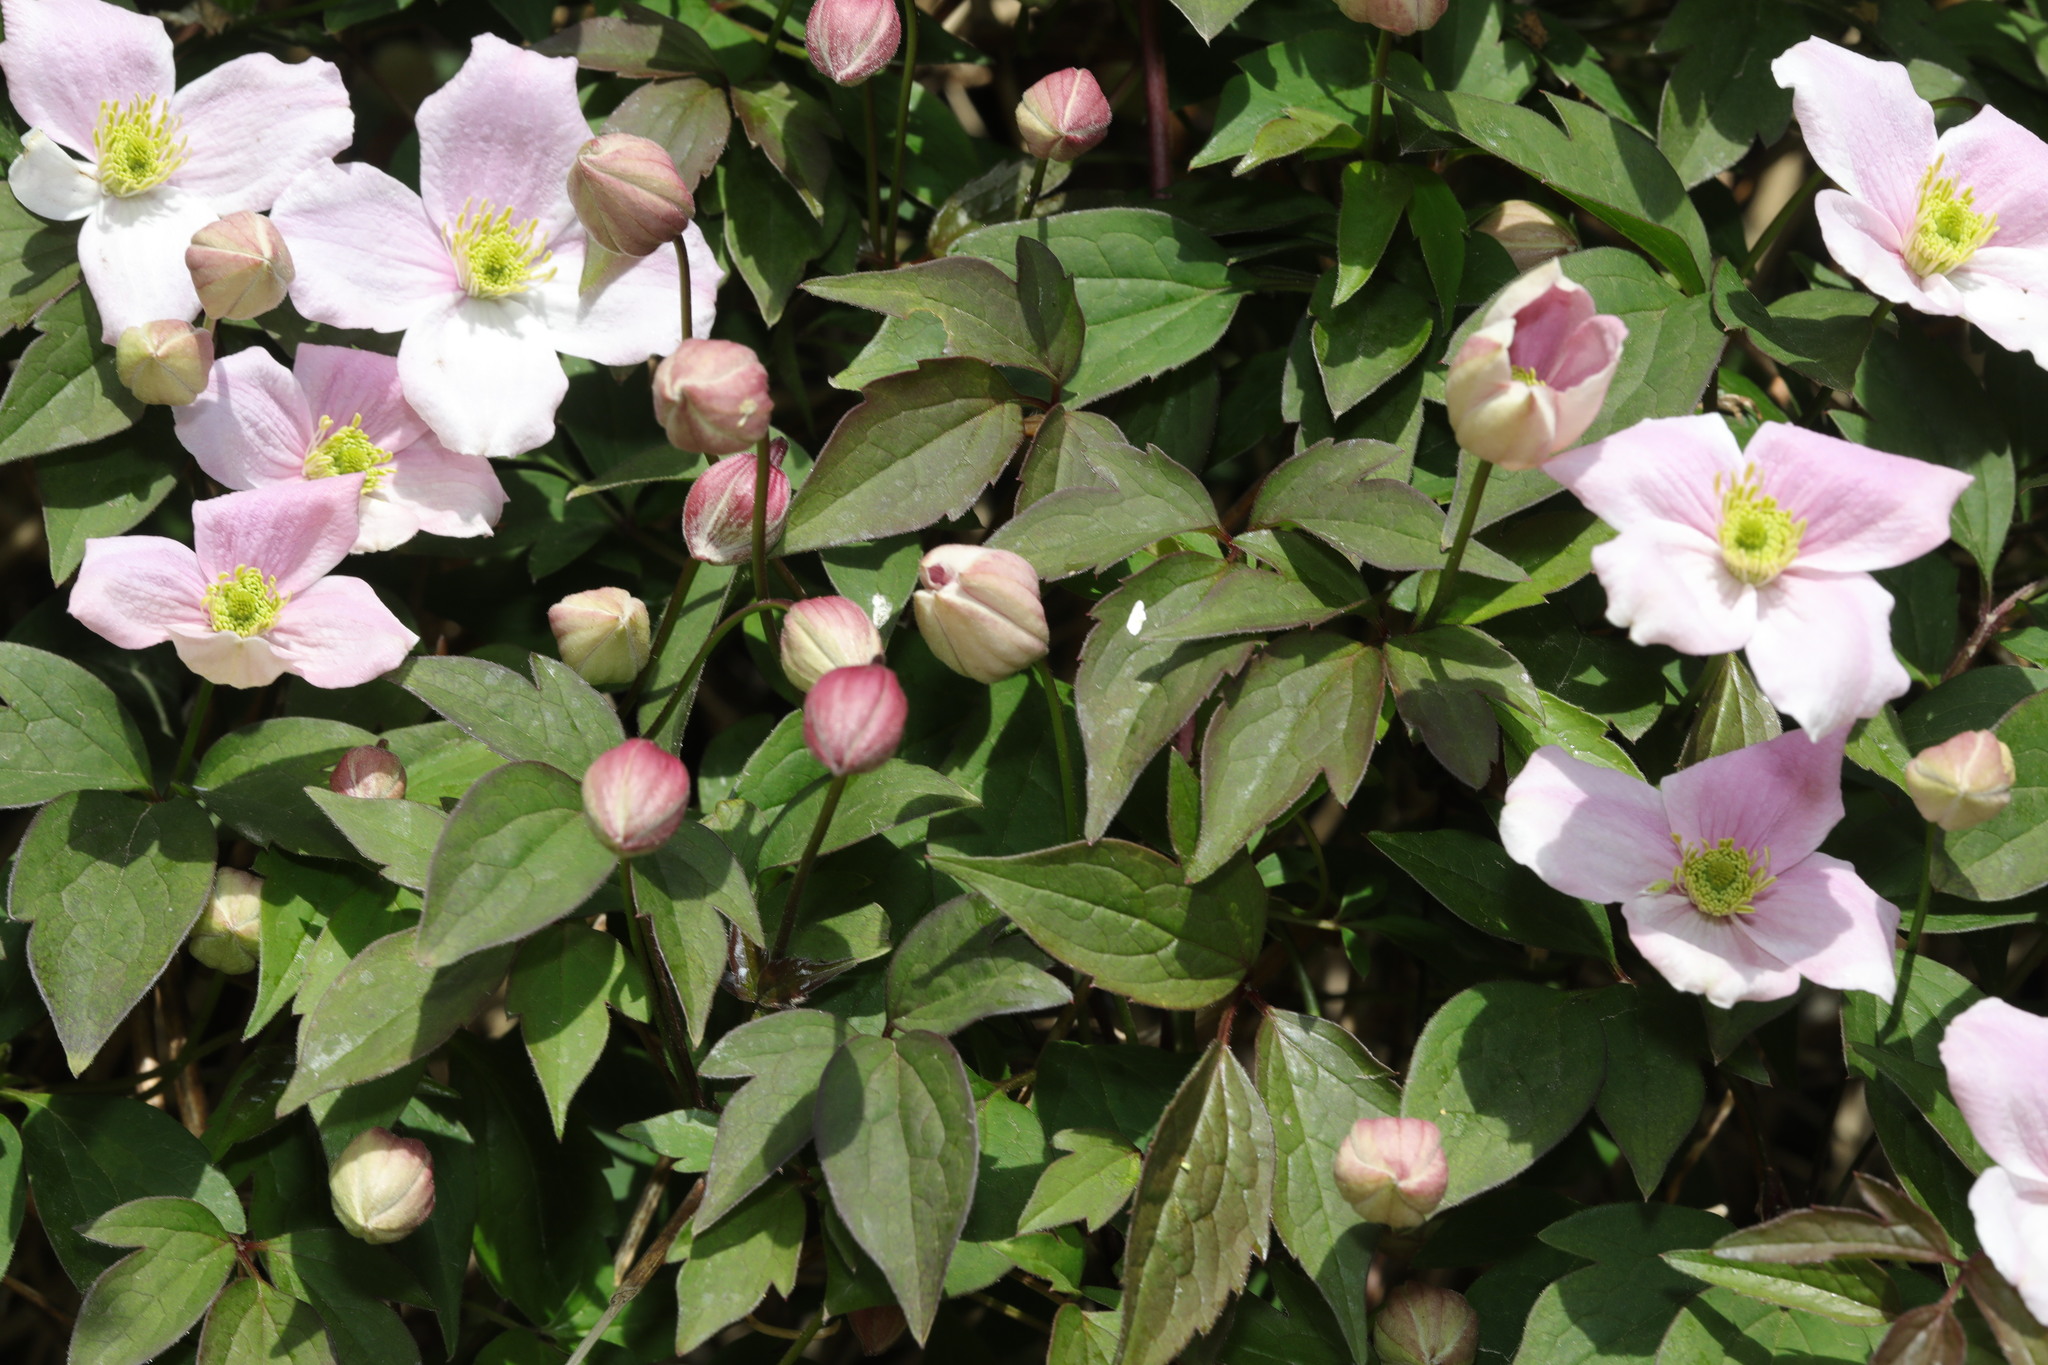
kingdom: Plantae
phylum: Tracheophyta
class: Magnoliopsida
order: Ranunculales
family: Ranunculaceae
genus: Clematis
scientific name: Clematis montana
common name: Himalayan clematis
